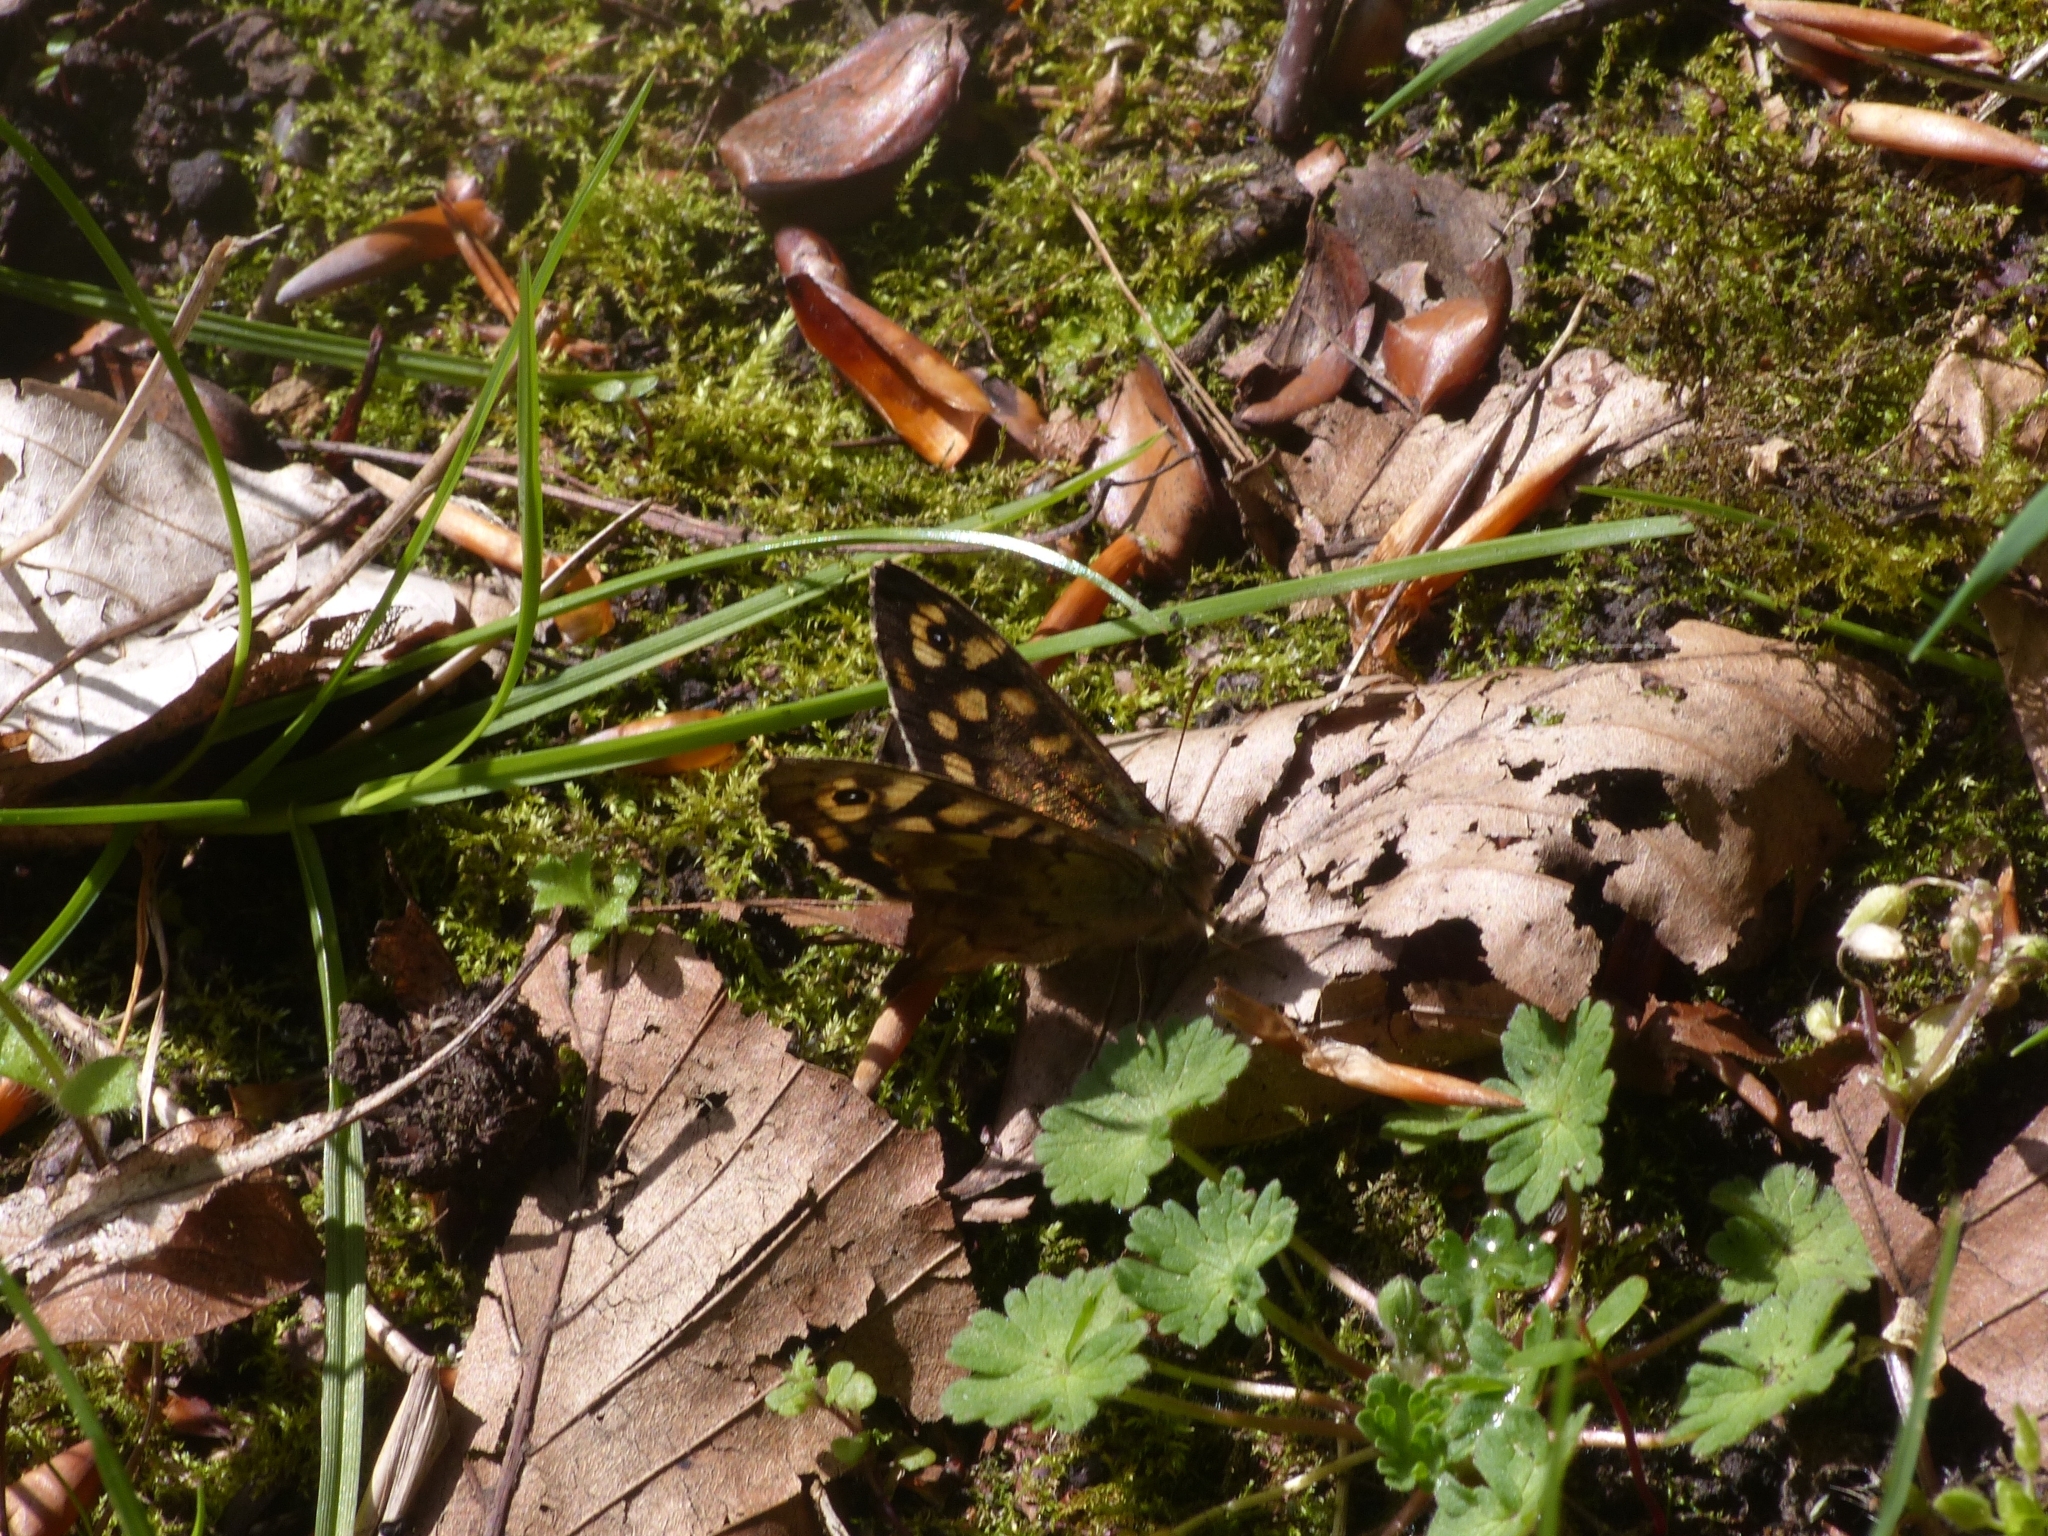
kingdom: Animalia
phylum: Arthropoda
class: Insecta
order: Lepidoptera
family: Nymphalidae
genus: Pararge
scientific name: Pararge aegeria
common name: Speckled wood
